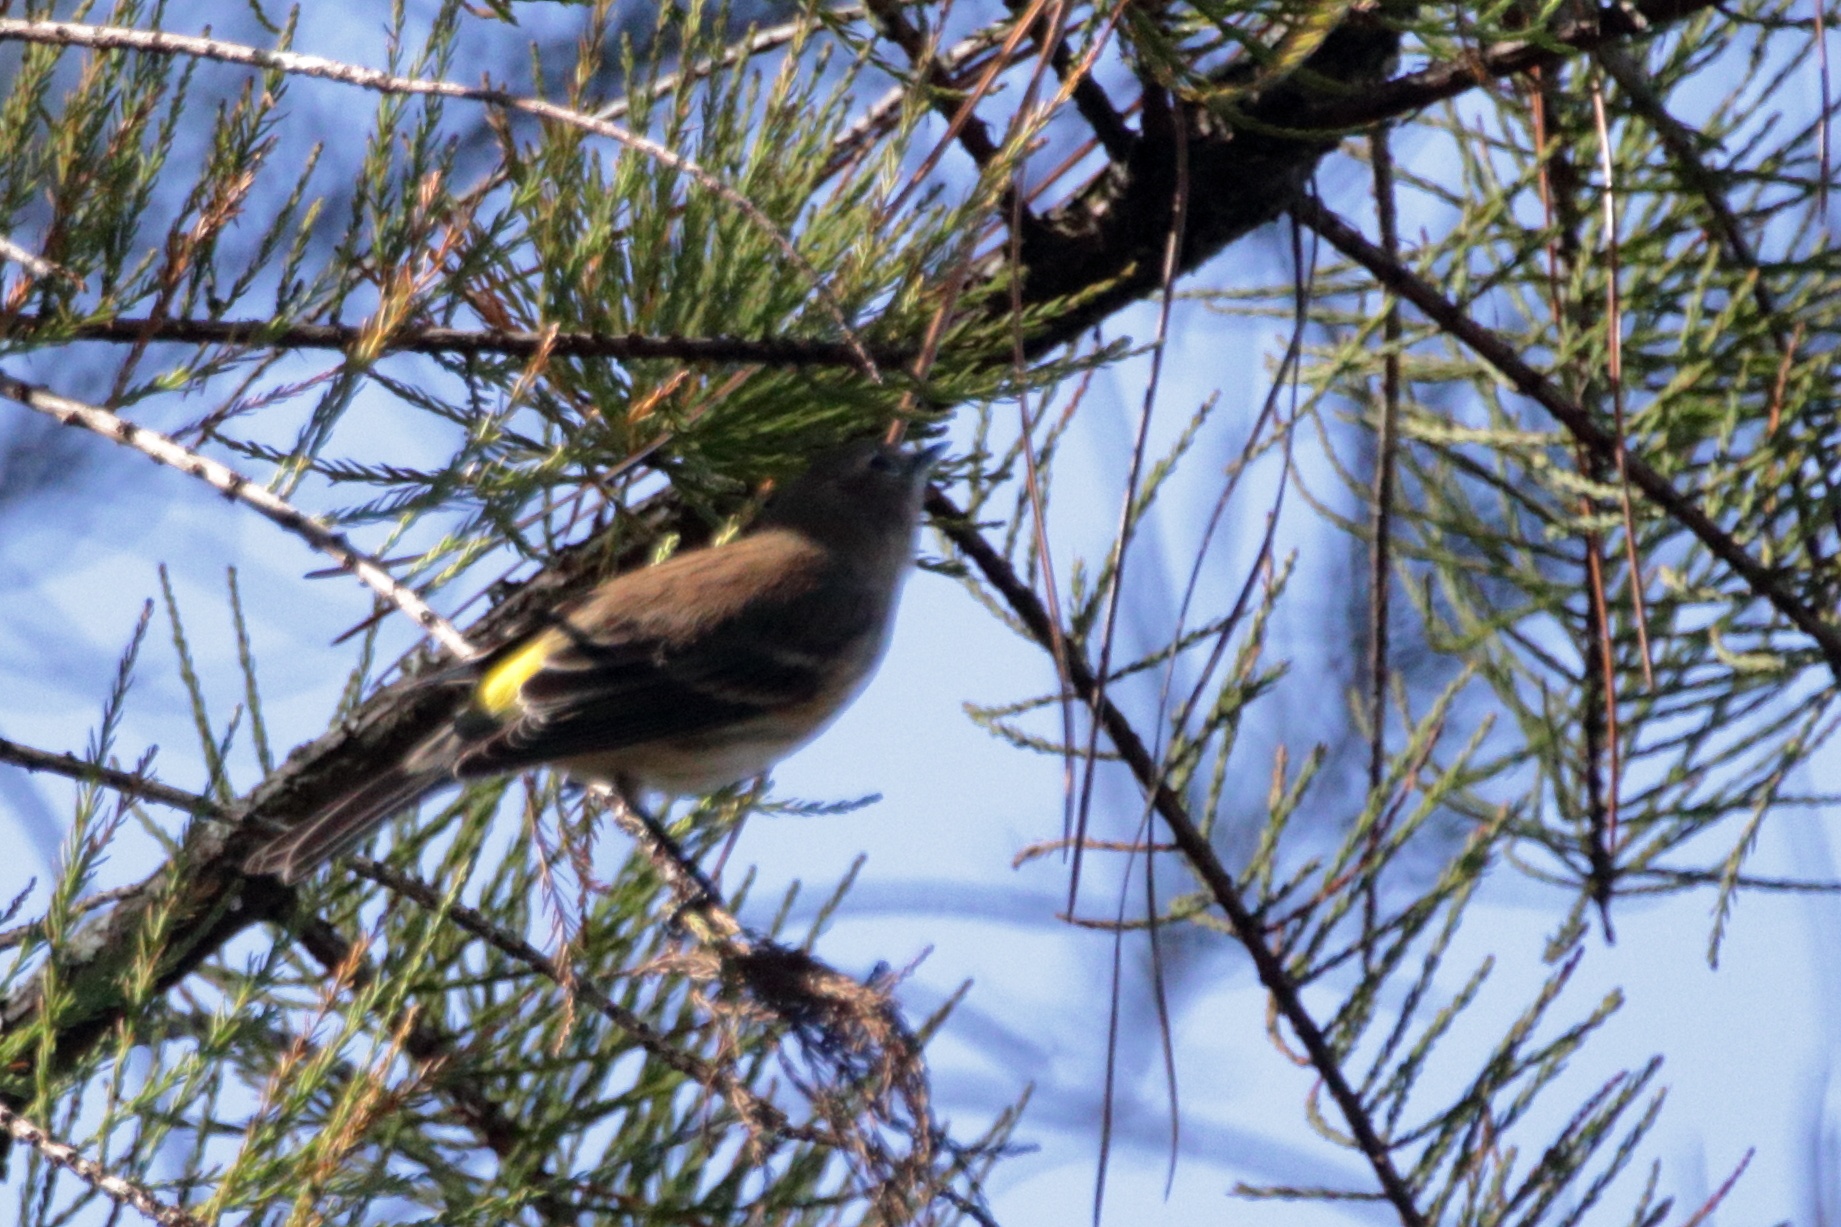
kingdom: Animalia
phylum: Chordata
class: Aves
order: Passeriformes
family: Parulidae
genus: Setophaga
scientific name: Setophaga coronata
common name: Myrtle warbler
